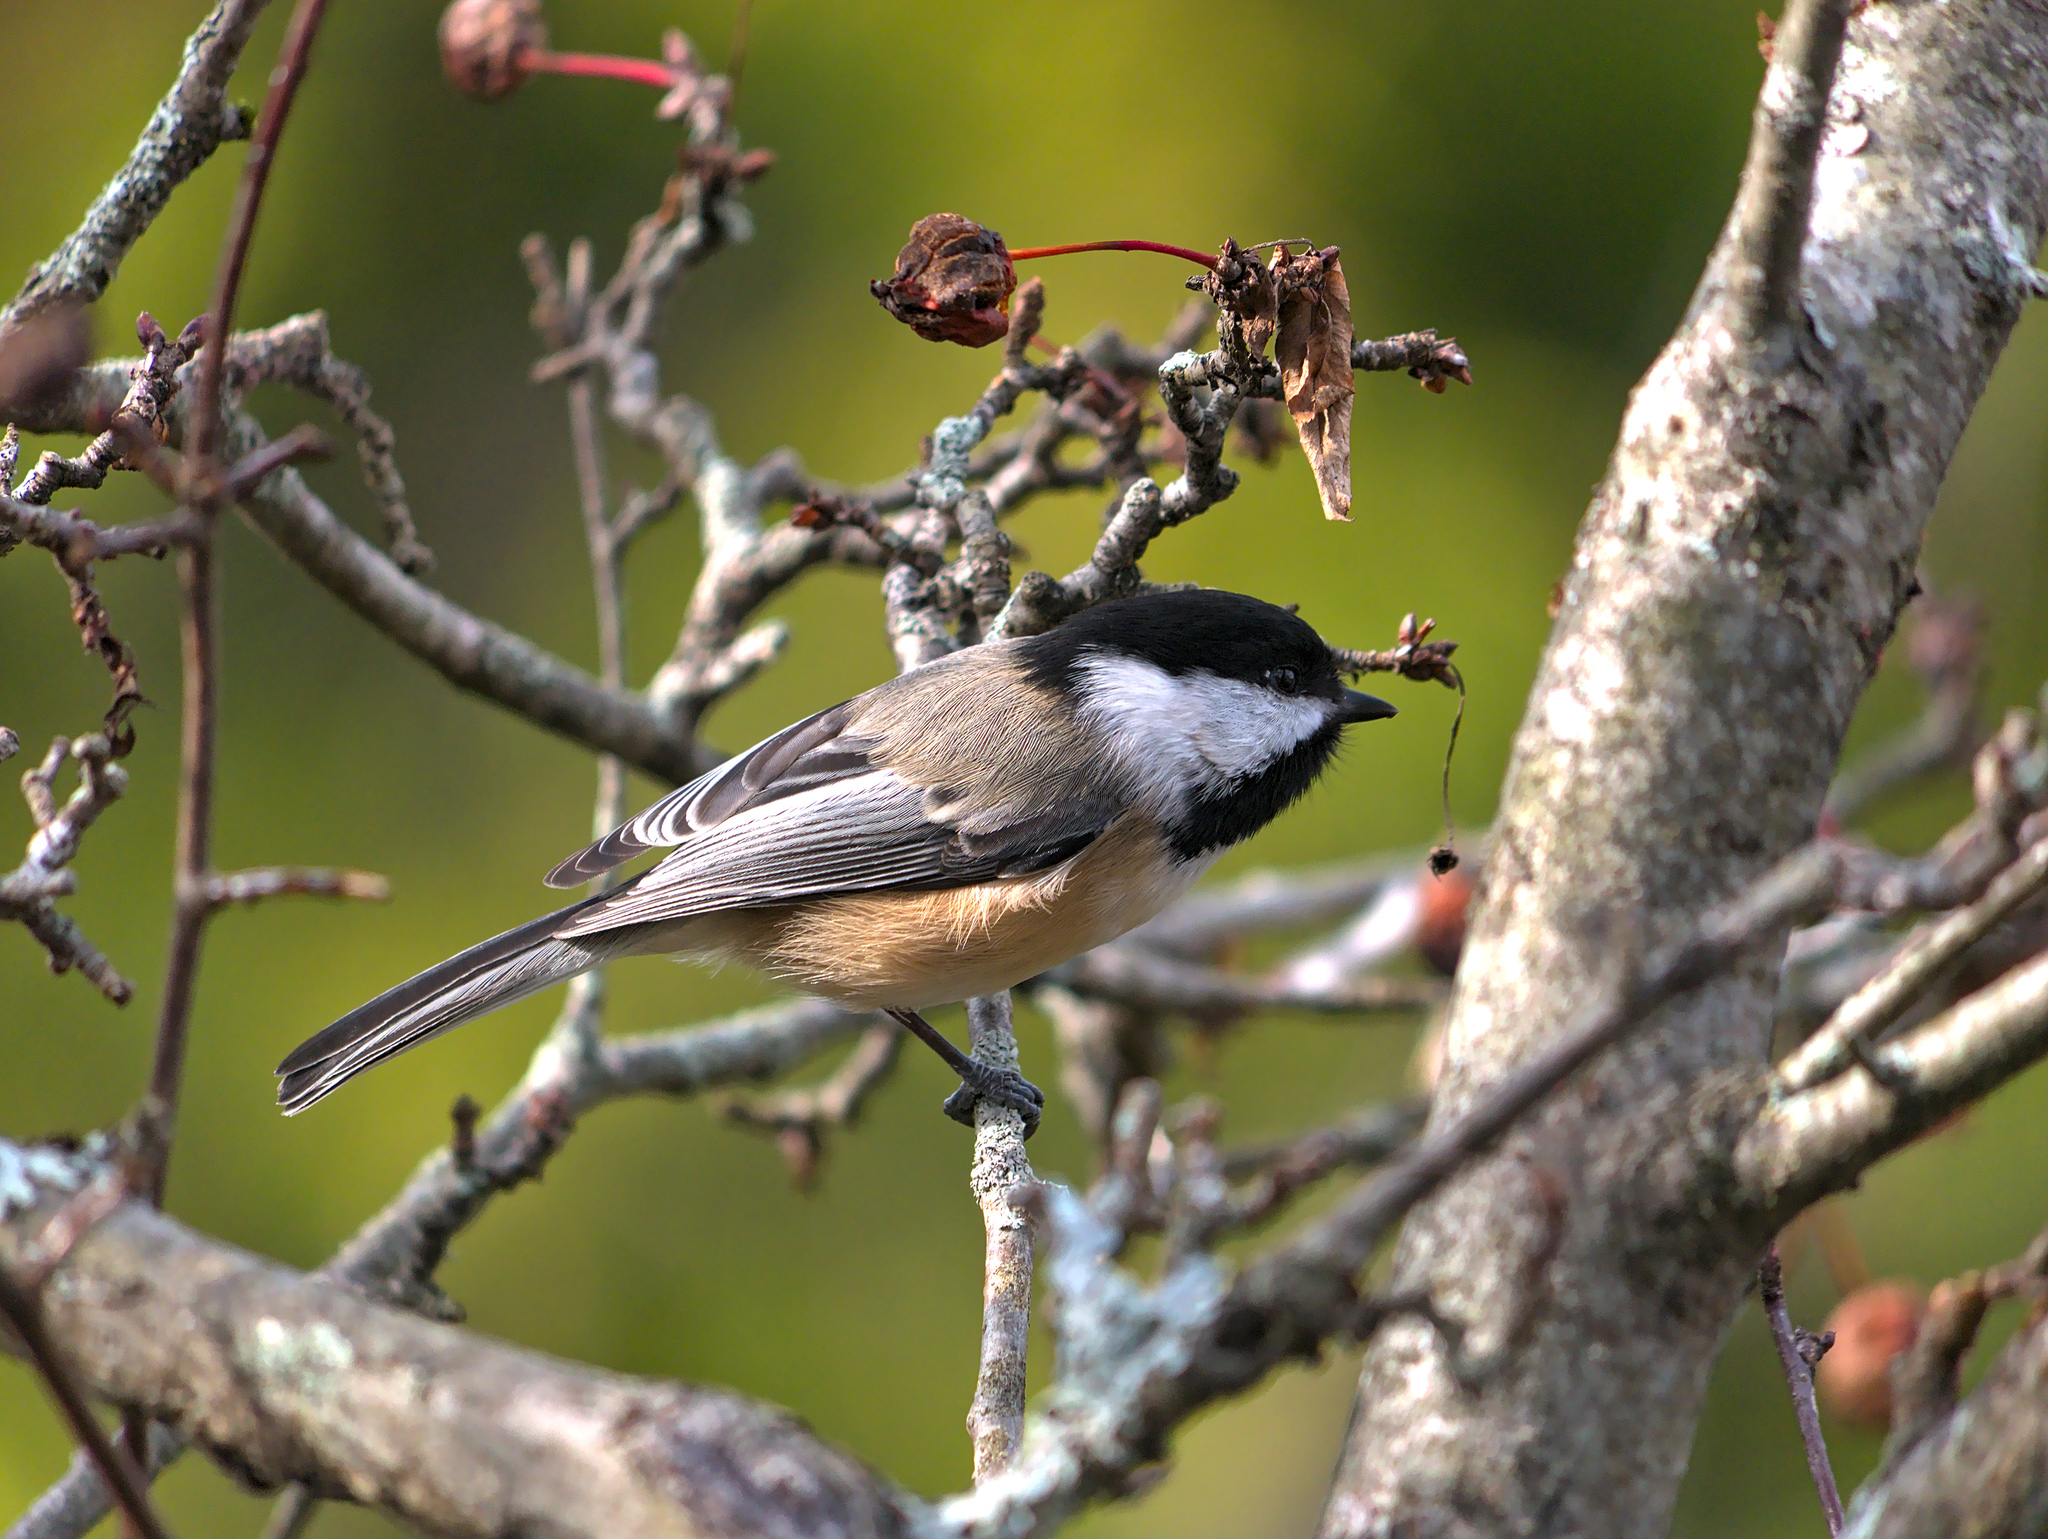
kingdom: Animalia
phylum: Chordata
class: Aves
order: Passeriformes
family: Paridae
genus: Poecile
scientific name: Poecile atricapillus
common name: Black-capped chickadee
